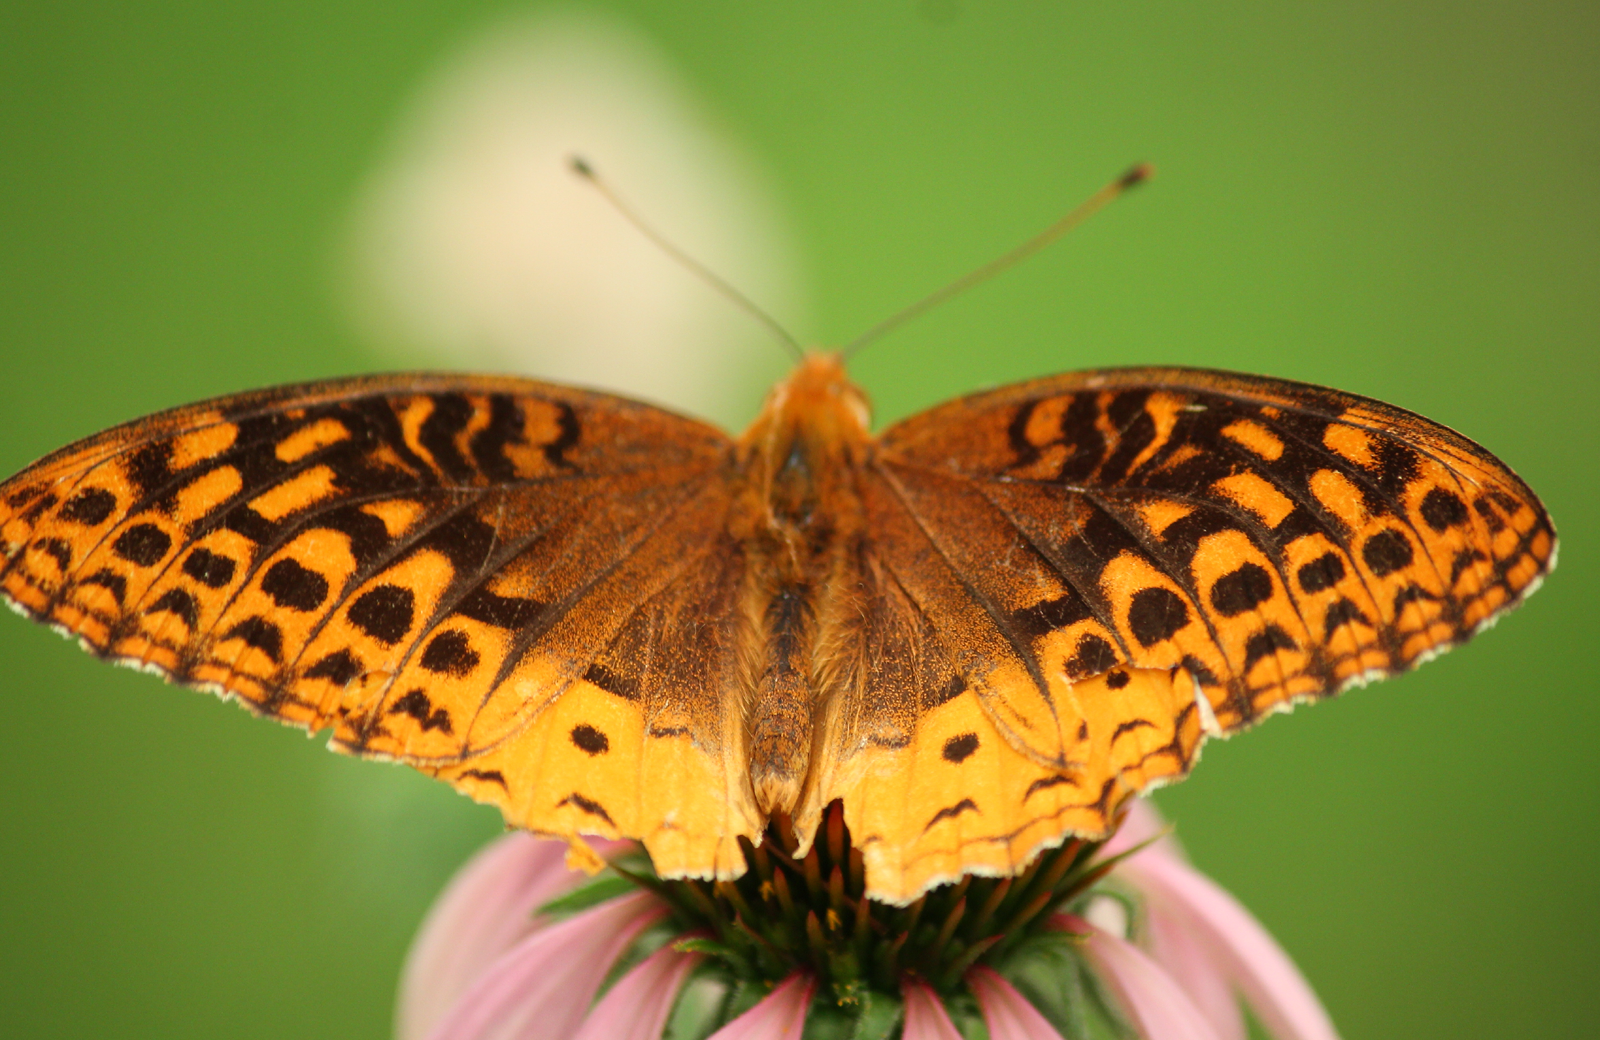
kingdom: Animalia
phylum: Arthropoda
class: Insecta
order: Lepidoptera
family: Nymphalidae
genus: Speyeria
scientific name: Speyeria cybele
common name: Great spangled fritillary
